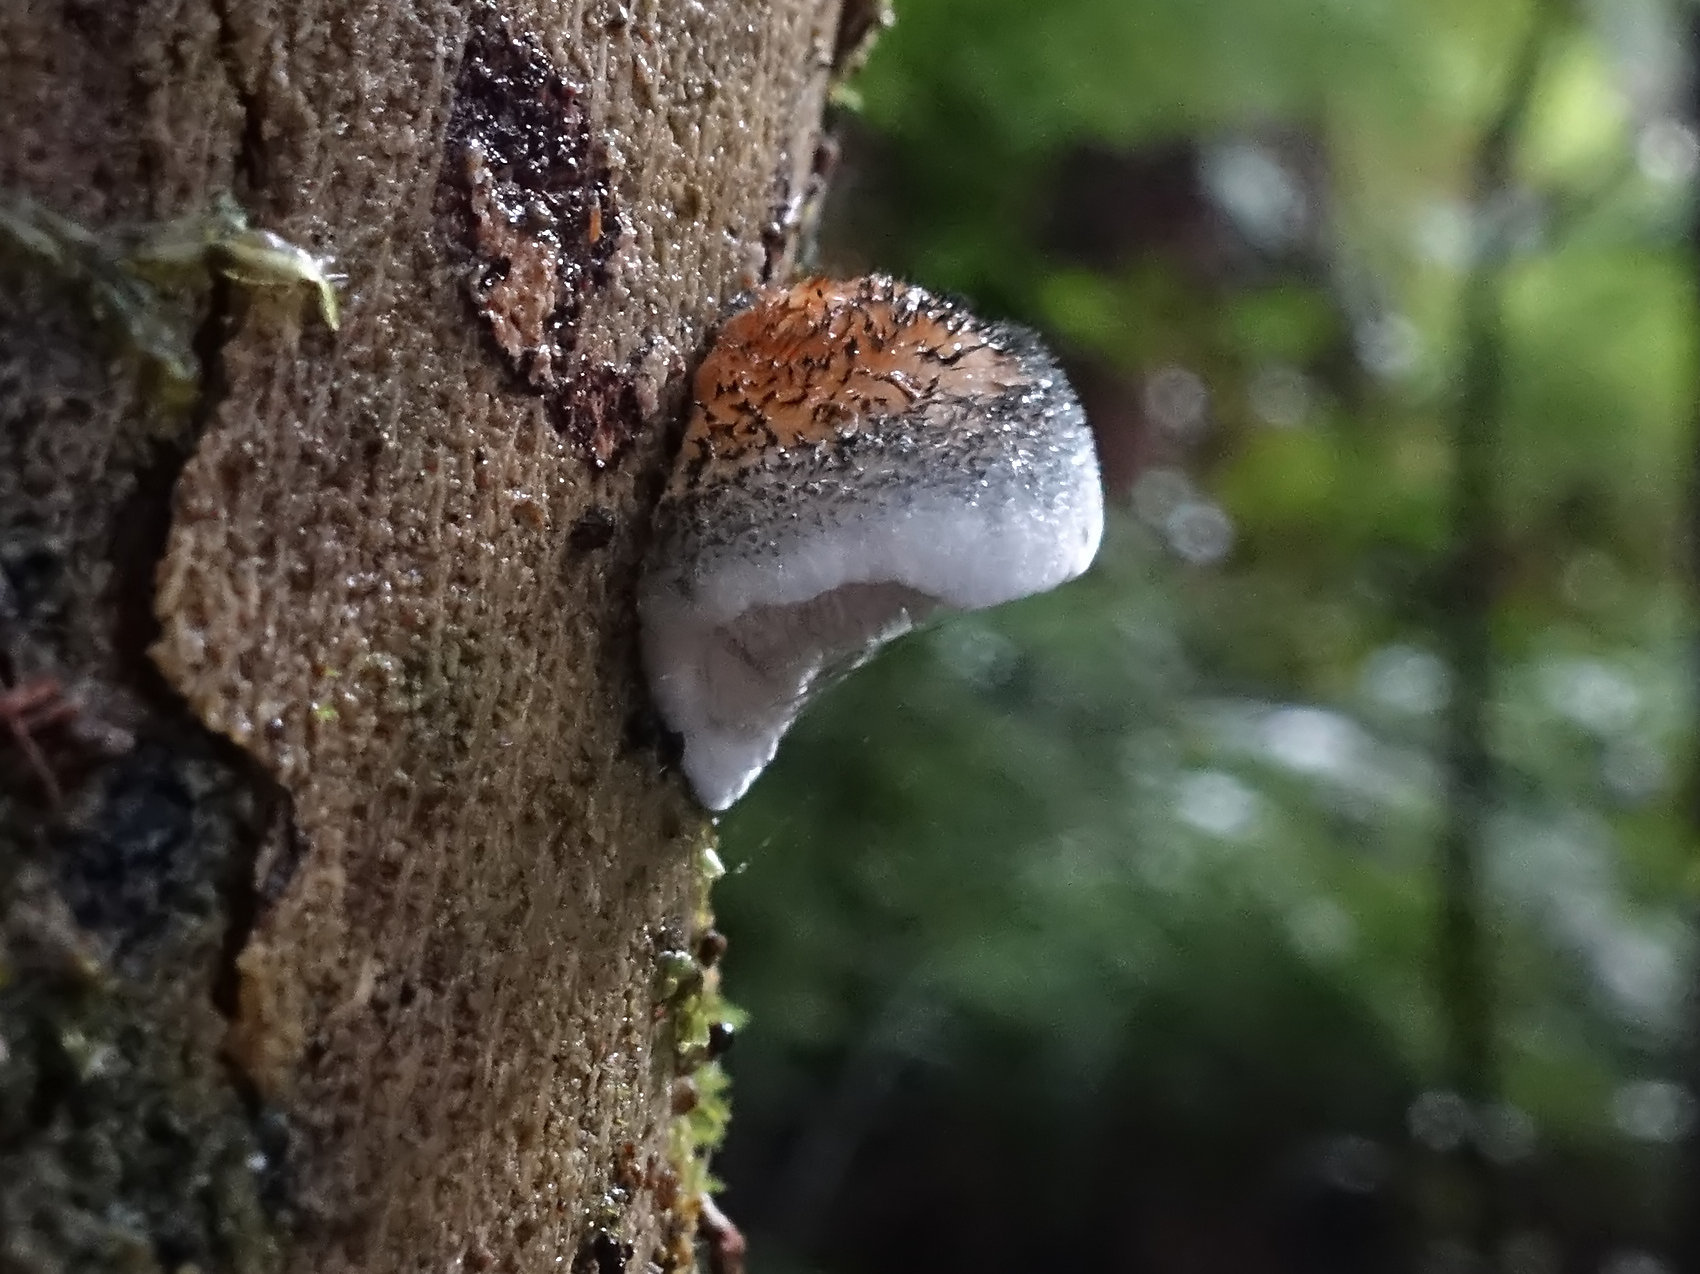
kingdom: Fungi
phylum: Basidiomycota
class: Agaricomycetes
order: Polyporales
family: Polyporaceae
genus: Cyanosporus
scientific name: Cyanosporus caesius
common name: Blue cheese polypore
